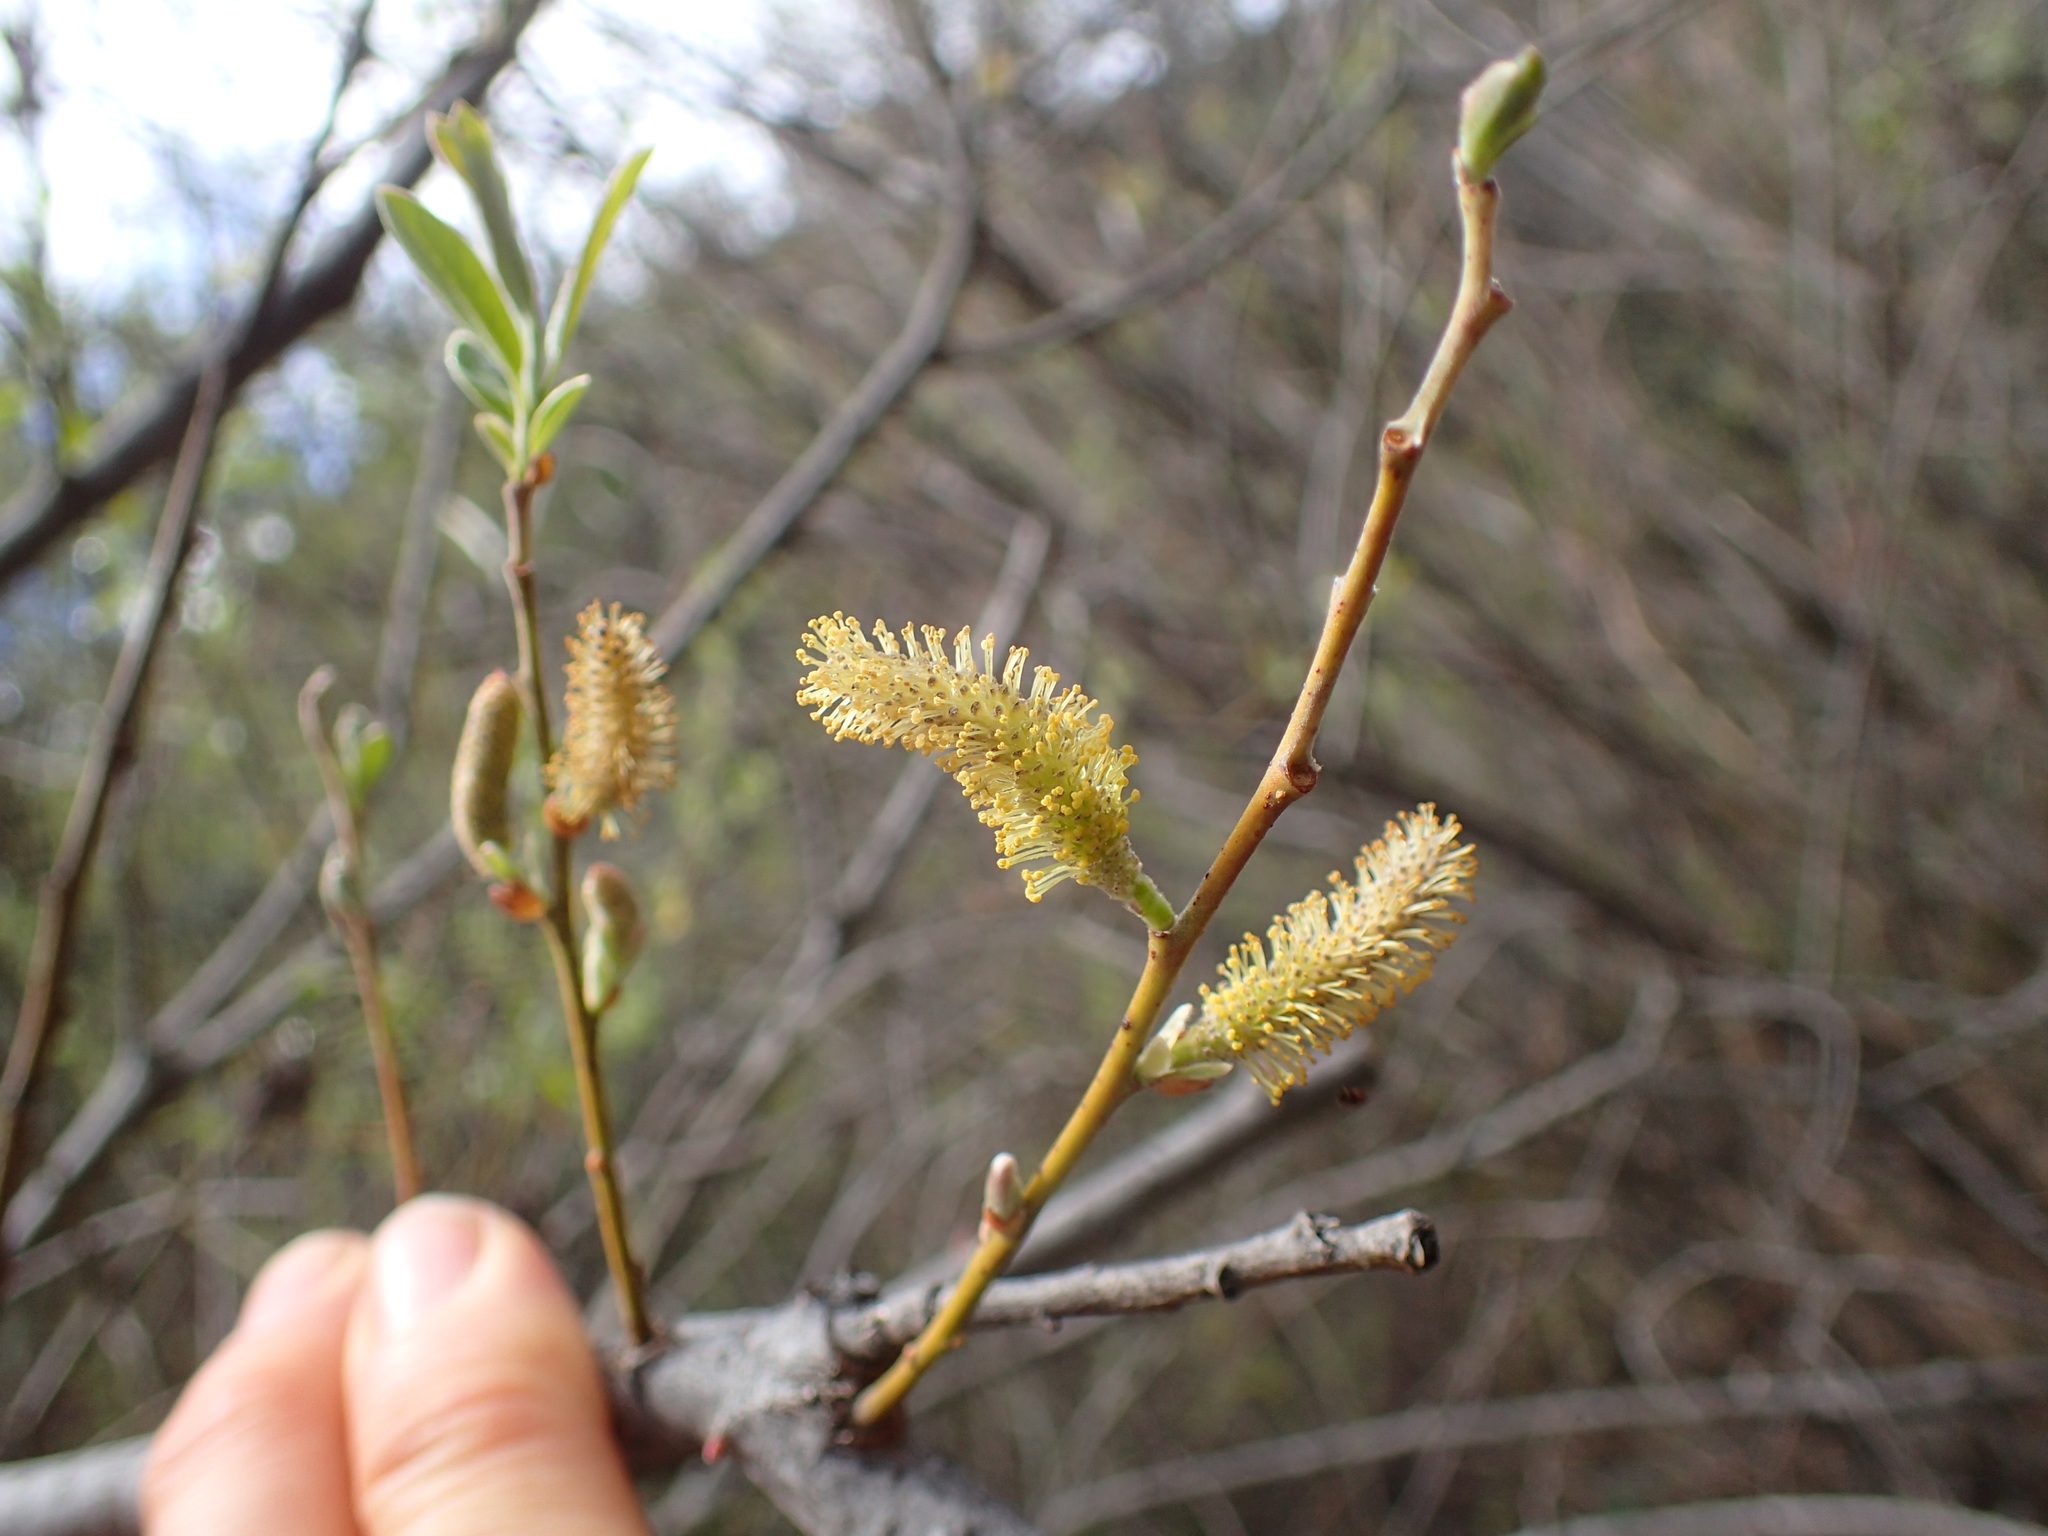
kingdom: Plantae
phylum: Tracheophyta
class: Magnoliopsida
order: Malpighiales
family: Salicaceae
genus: Salix
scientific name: Salix lasiolepis
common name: Arroyo willow
